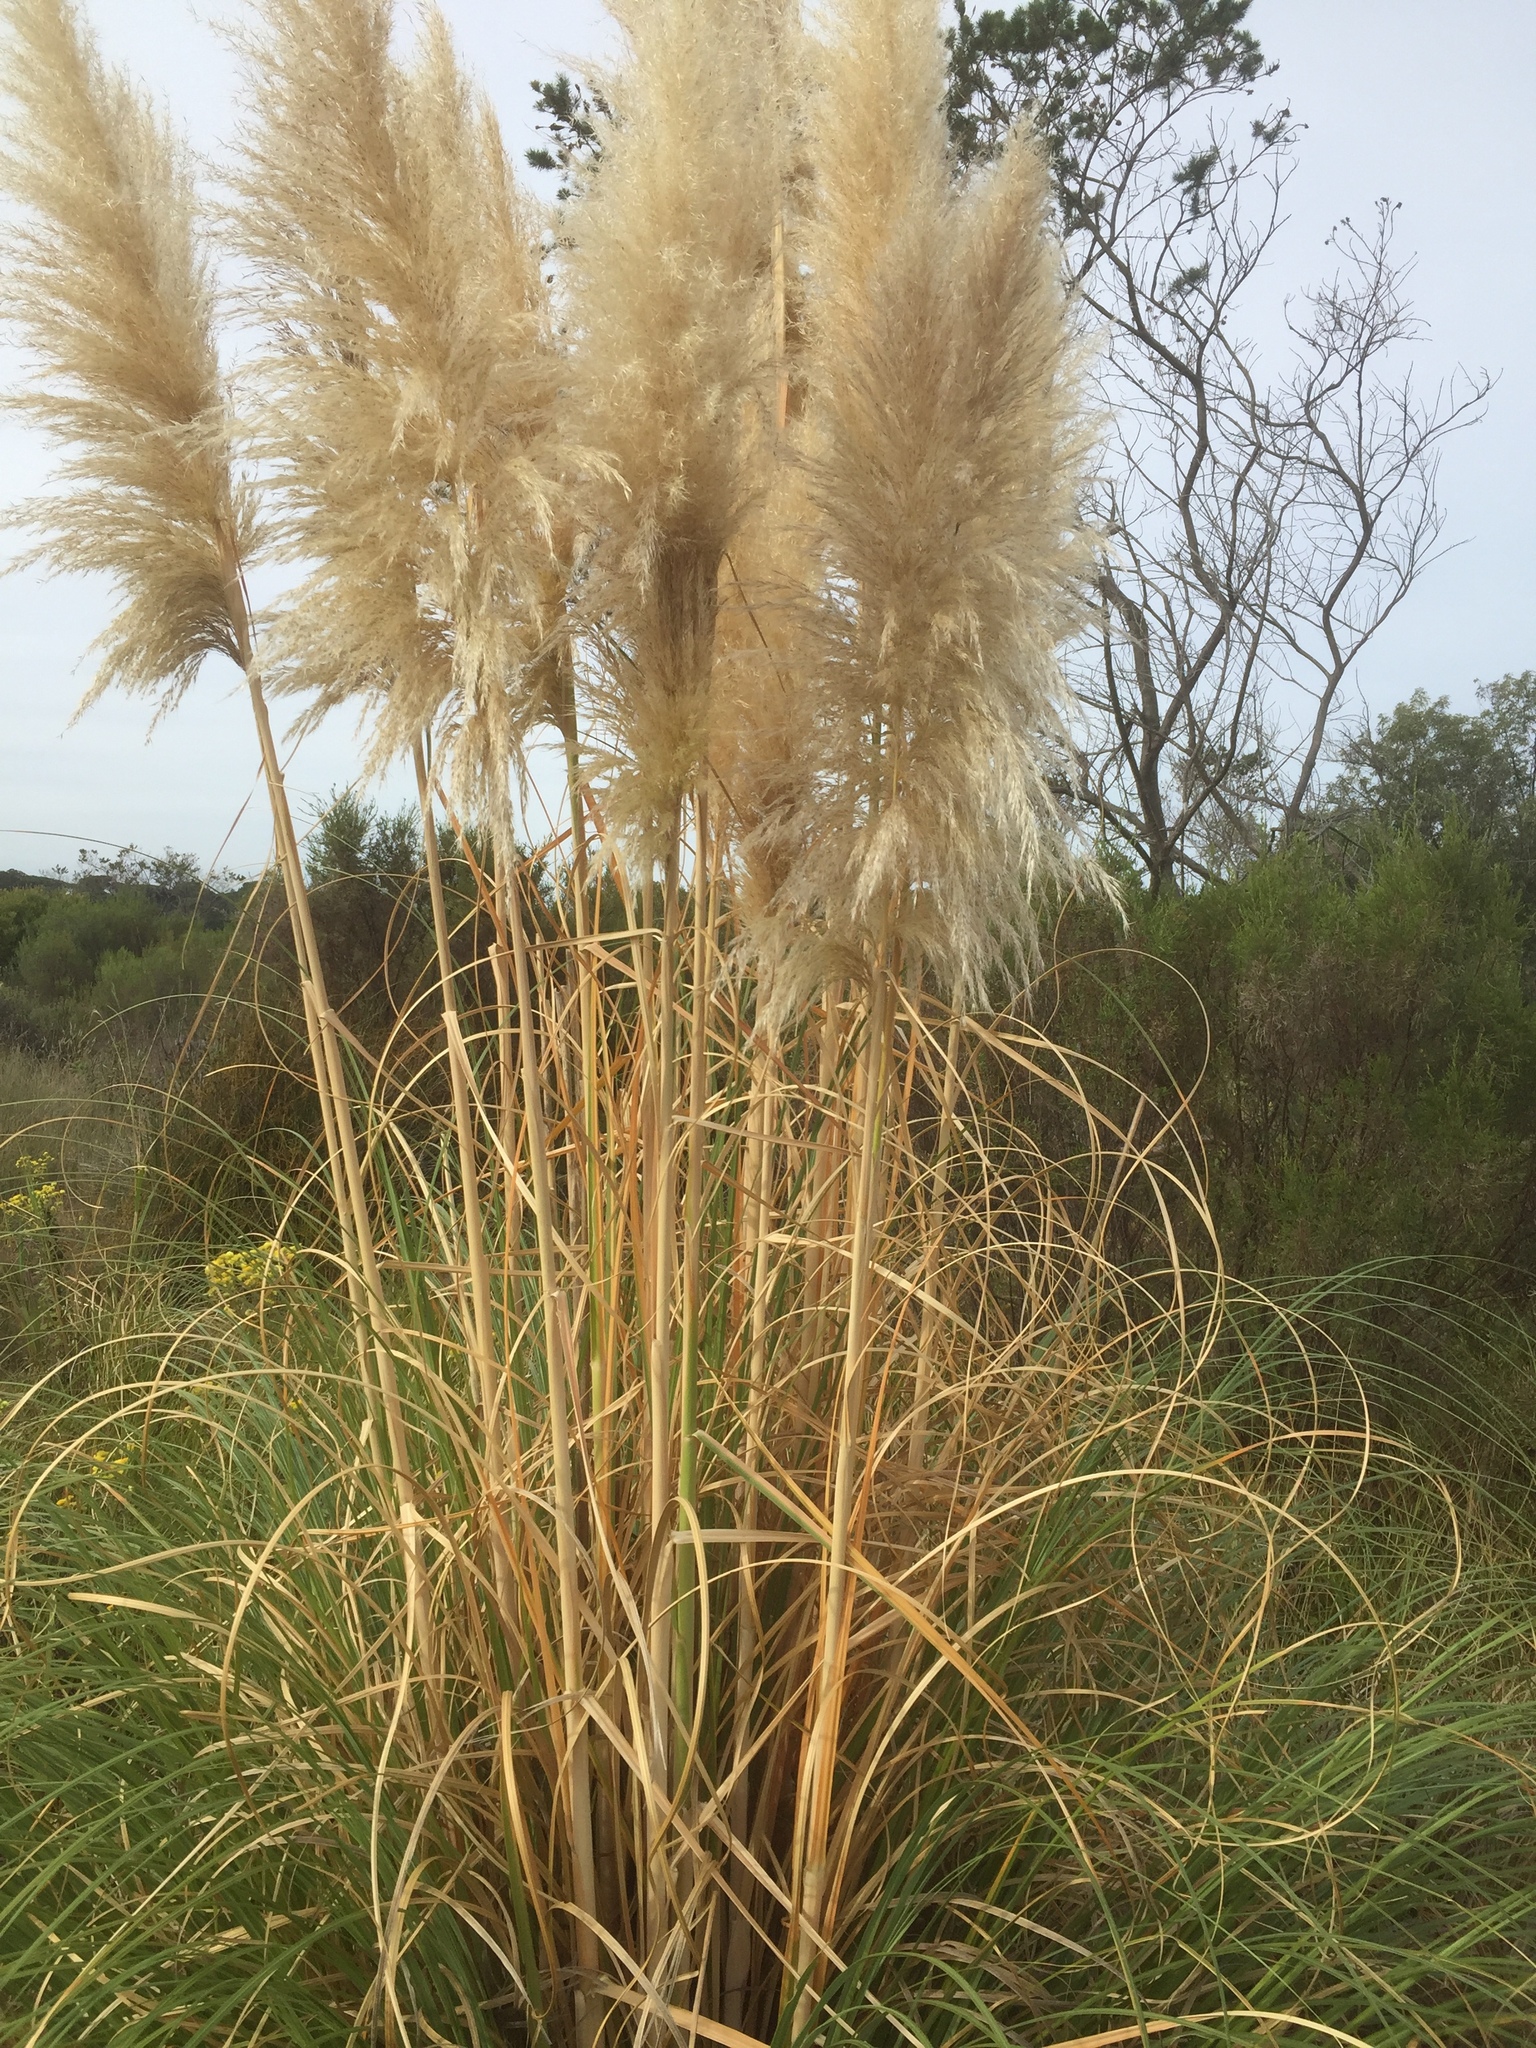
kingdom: Plantae
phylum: Tracheophyta
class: Liliopsida
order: Poales
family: Poaceae
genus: Cortaderia
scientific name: Cortaderia selloana
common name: Uruguayan pampas grass
